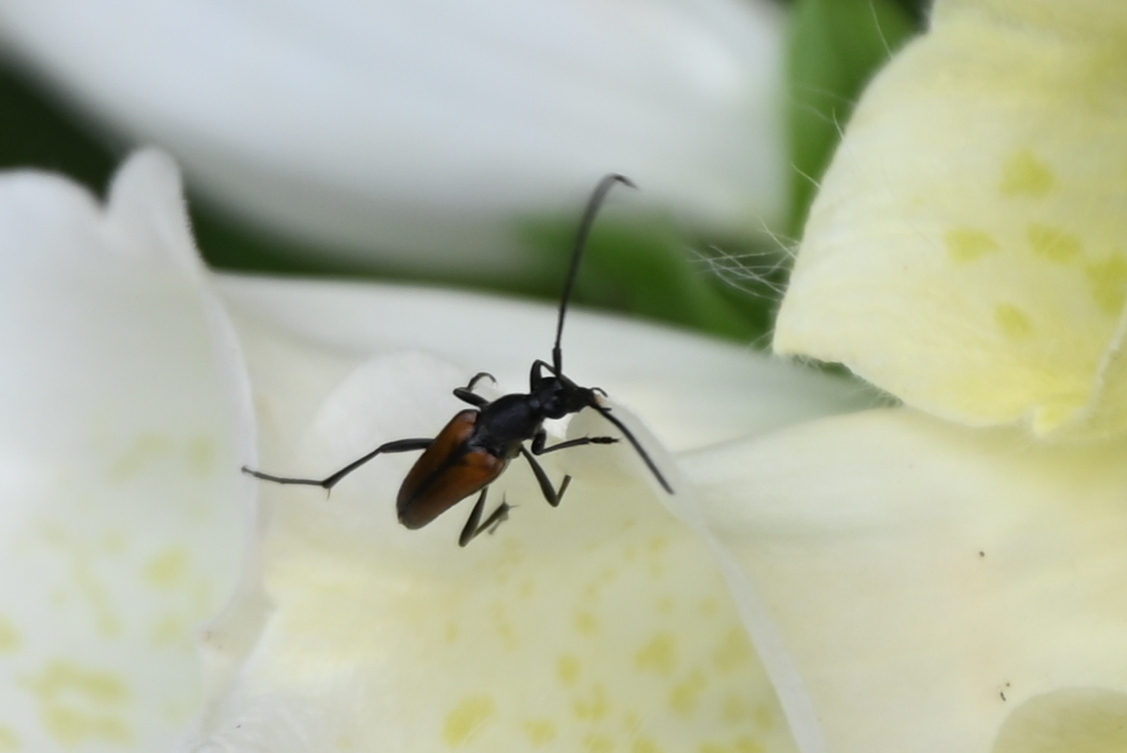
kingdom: Animalia
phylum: Arthropoda
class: Insecta
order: Coleoptera
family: Cerambycidae
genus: Stenurella
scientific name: Stenurella melanura
